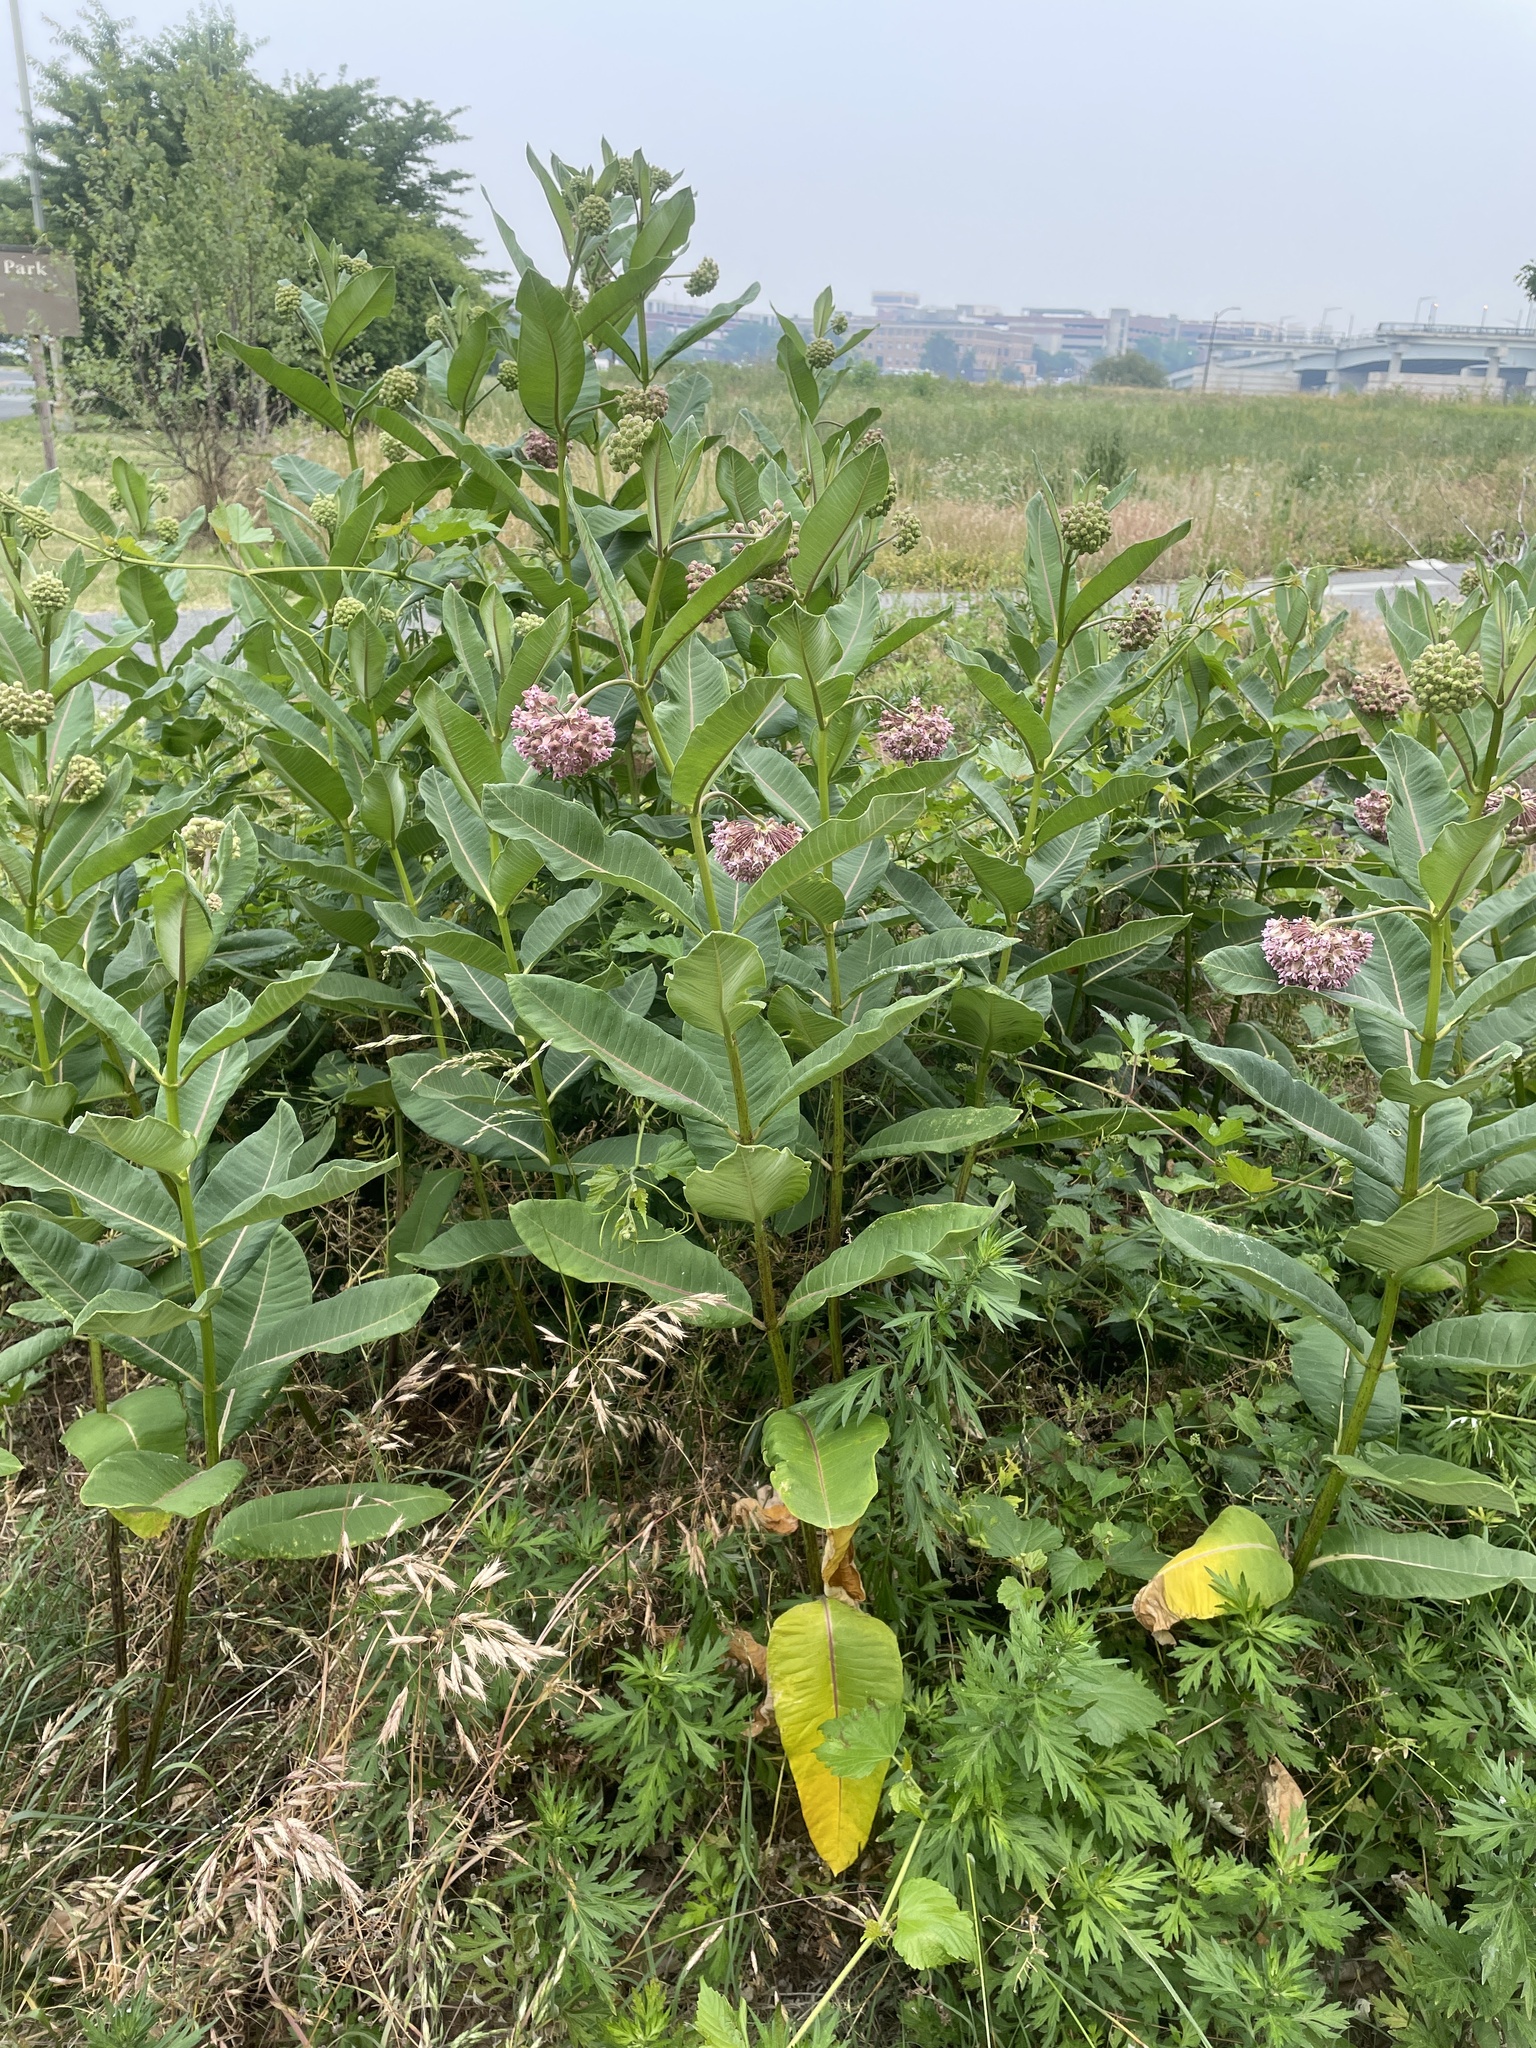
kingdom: Plantae
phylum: Tracheophyta
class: Magnoliopsida
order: Gentianales
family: Apocynaceae
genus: Asclepias
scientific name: Asclepias syriaca
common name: Common milkweed
